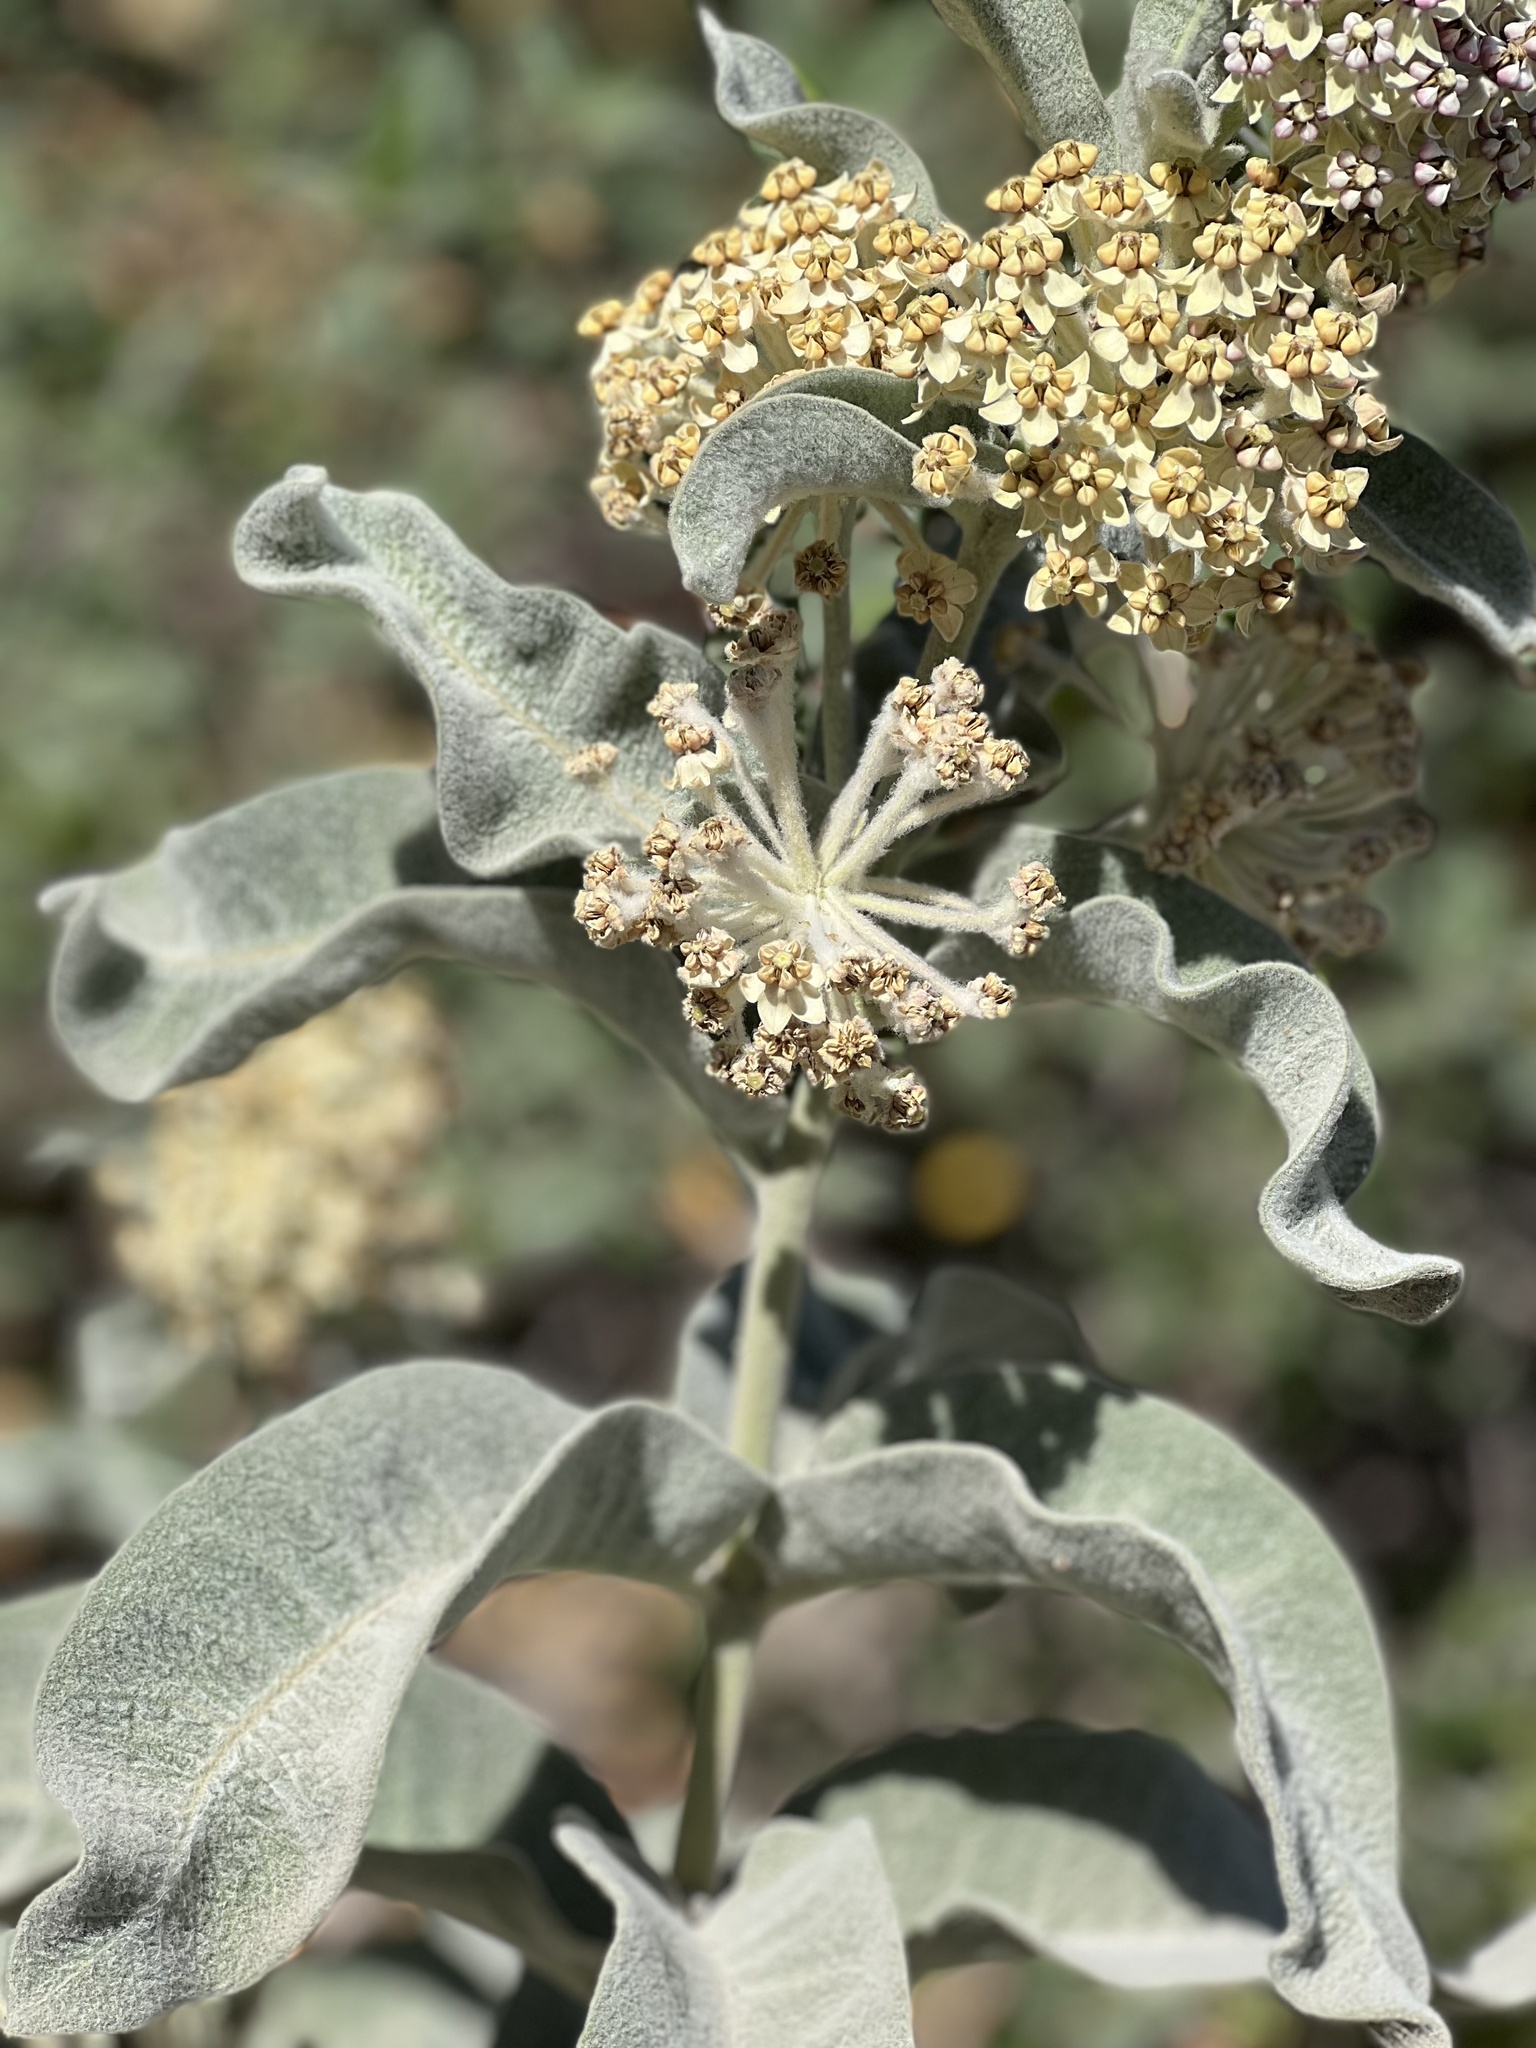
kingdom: Plantae
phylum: Tracheophyta
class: Magnoliopsida
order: Gentianales
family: Apocynaceae
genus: Asclepias
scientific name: Asclepias eriocarpa
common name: Indian milkweed
